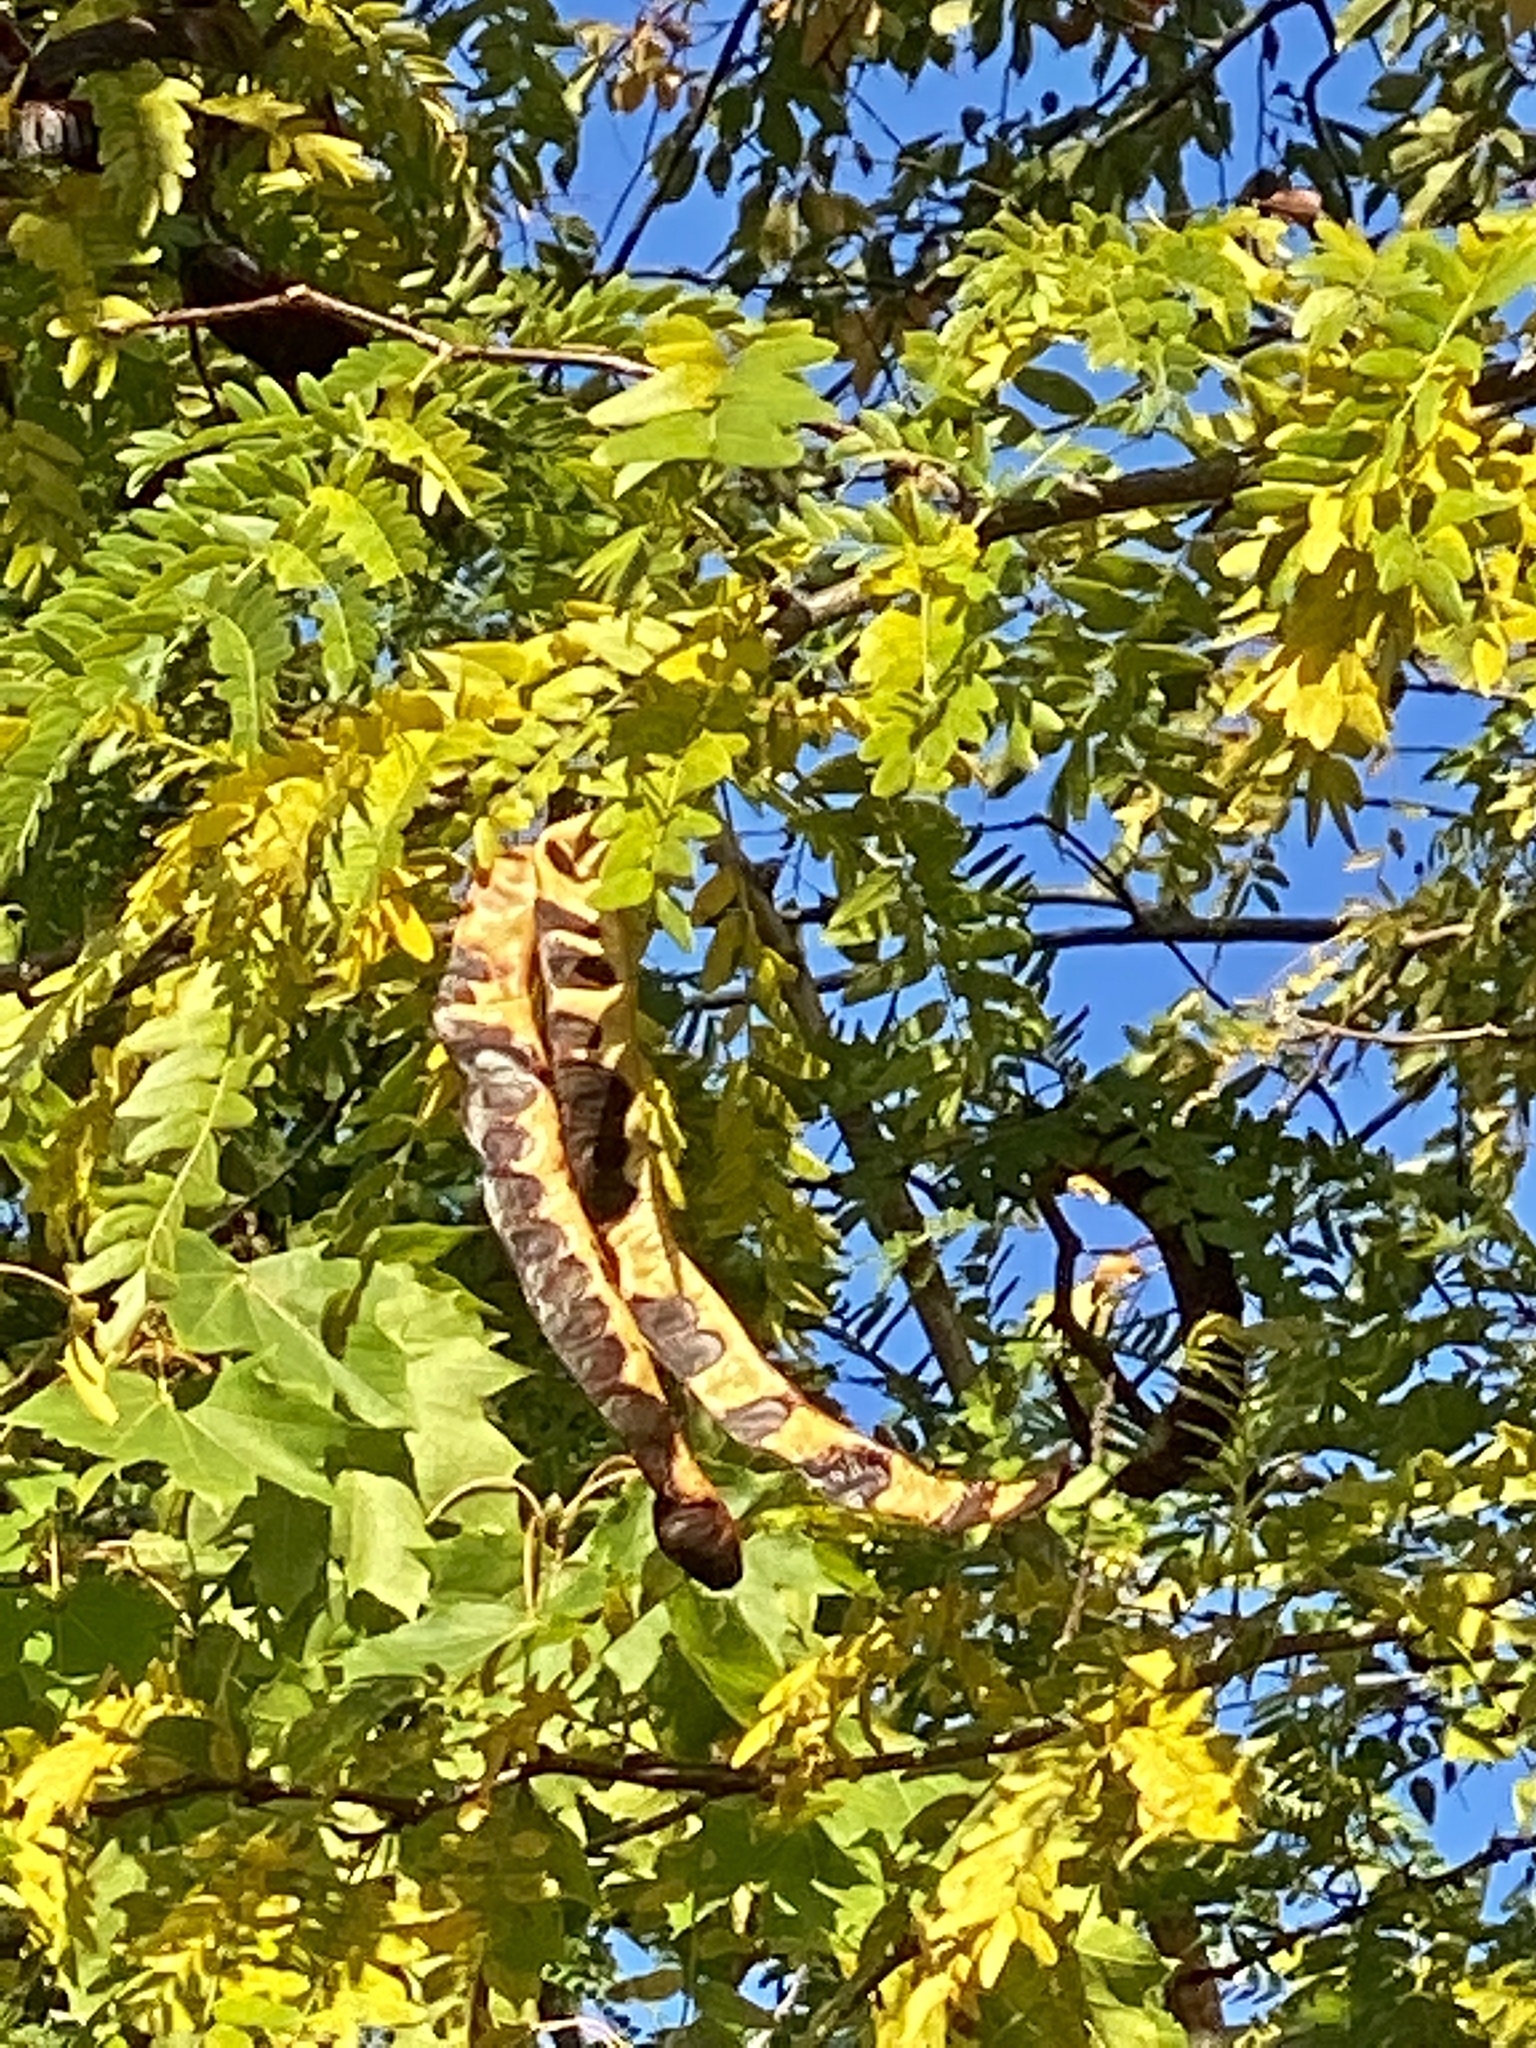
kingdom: Plantae
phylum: Tracheophyta
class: Magnoliopsida
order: Fabales
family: Fabaceae
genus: Gleditsia
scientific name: Gleditsia triacanthos
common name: Common honeylocust
